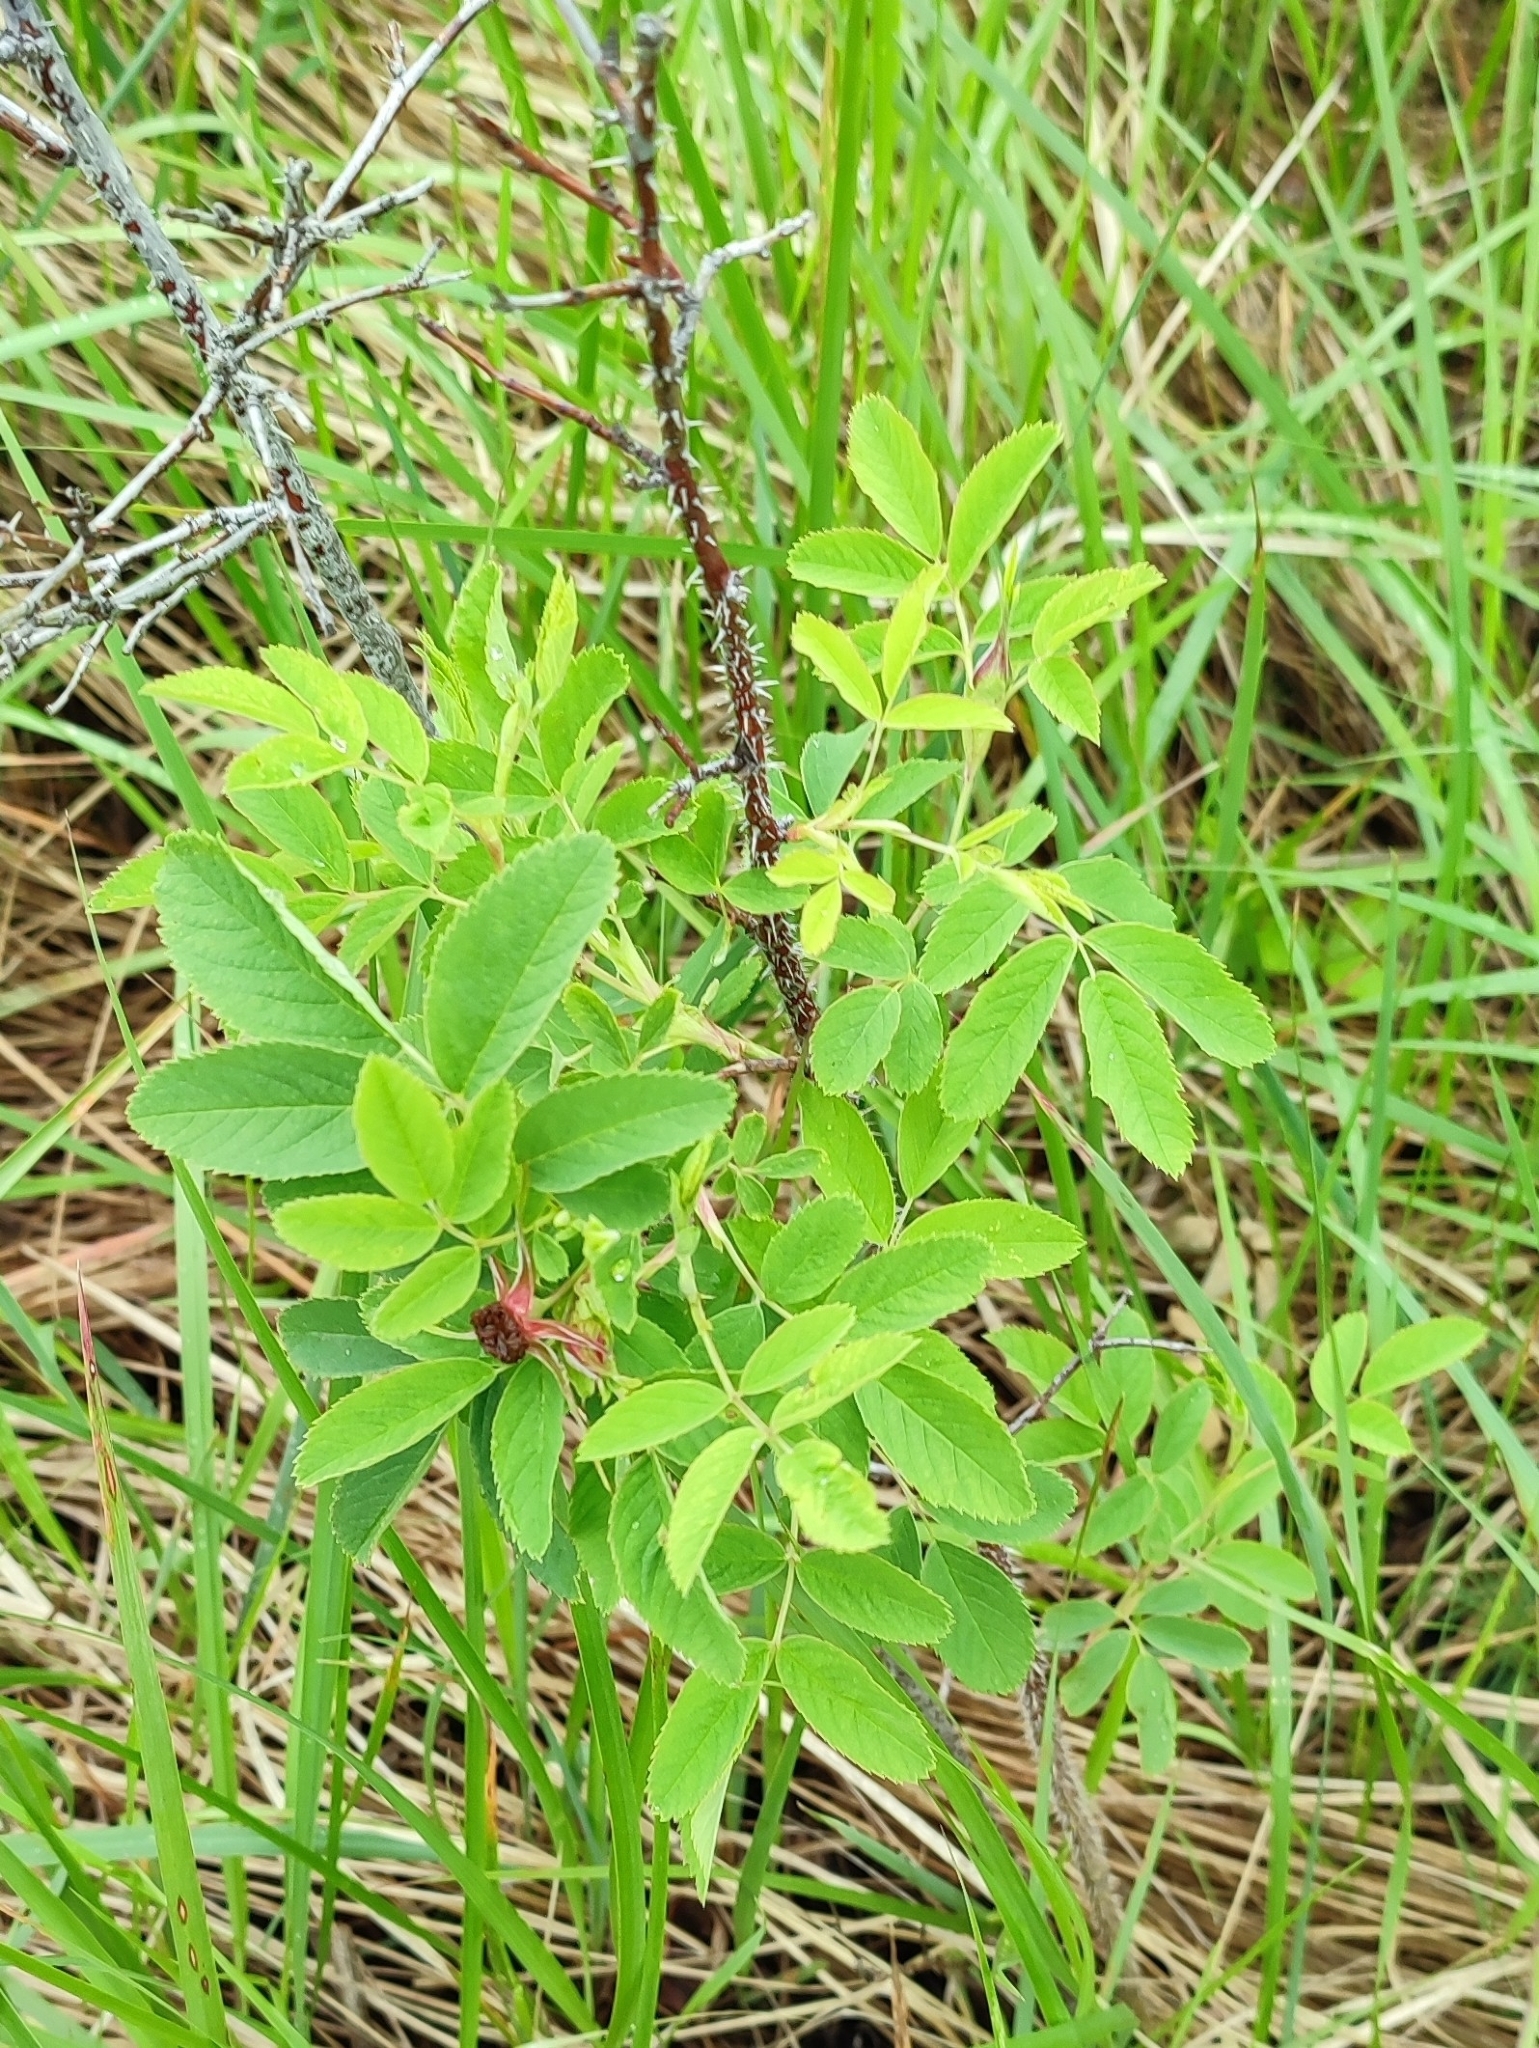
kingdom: Plantae
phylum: Tracheophyta
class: Magnoliopsida
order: Rosales
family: Rosaceae
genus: Rosa
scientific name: Rosa majalis
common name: Cinnamon rose
